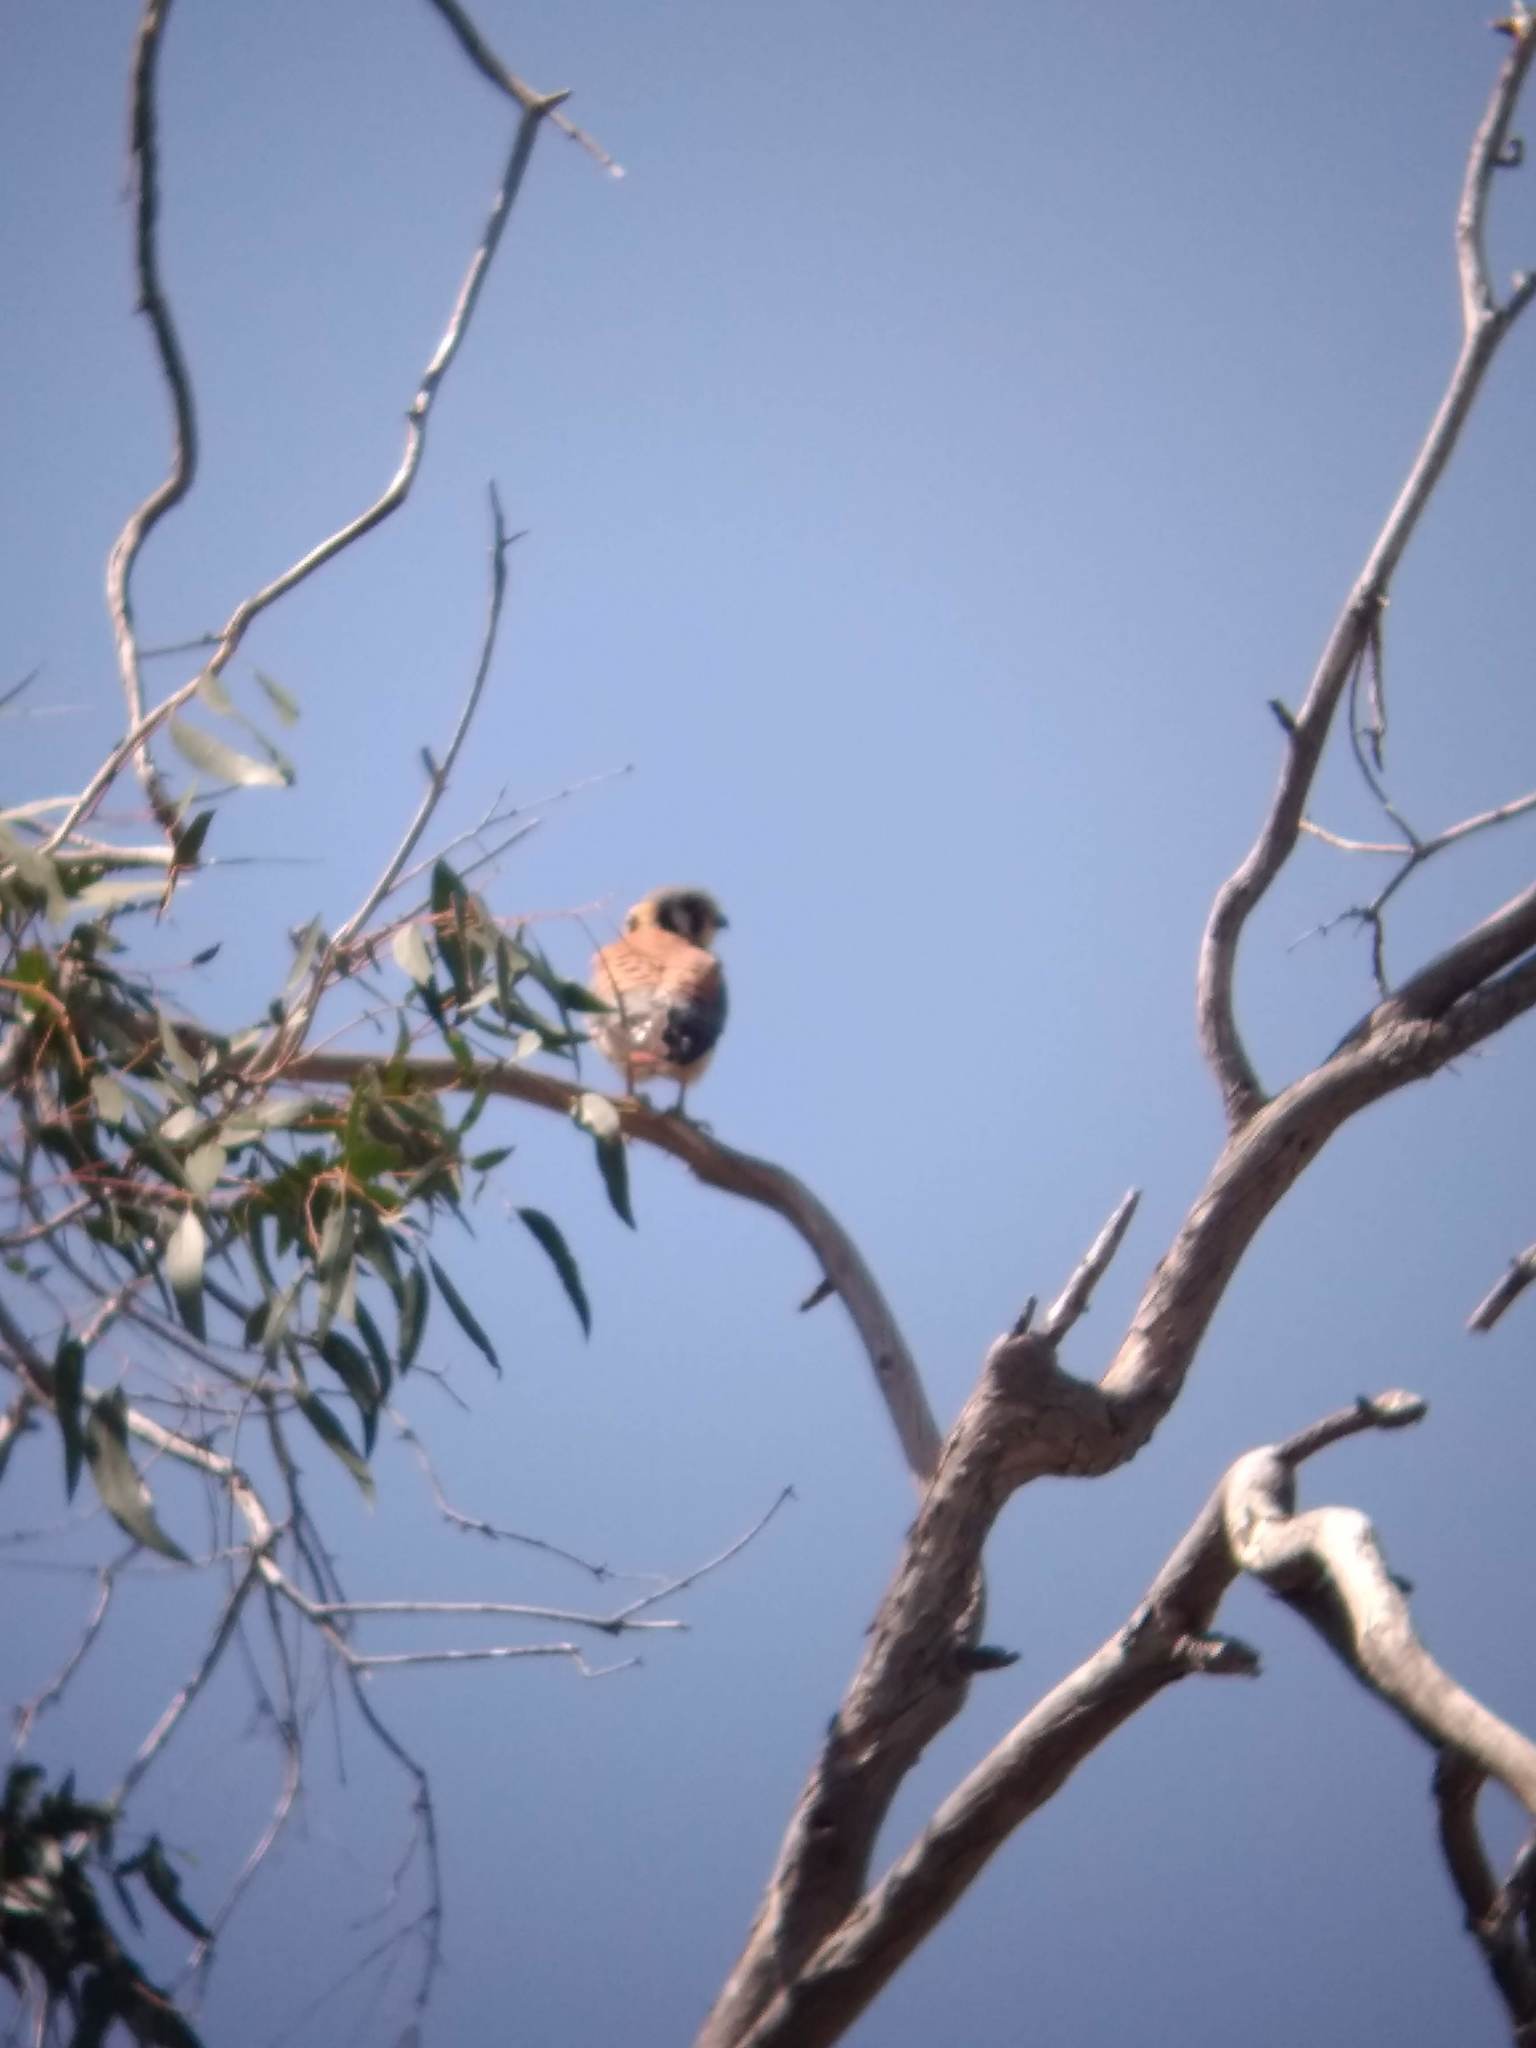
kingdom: Animalia
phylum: Chordata
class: Aves
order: Falconiformes
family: Falconidae
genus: Falco
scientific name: Falco sparverius
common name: American kestrel
